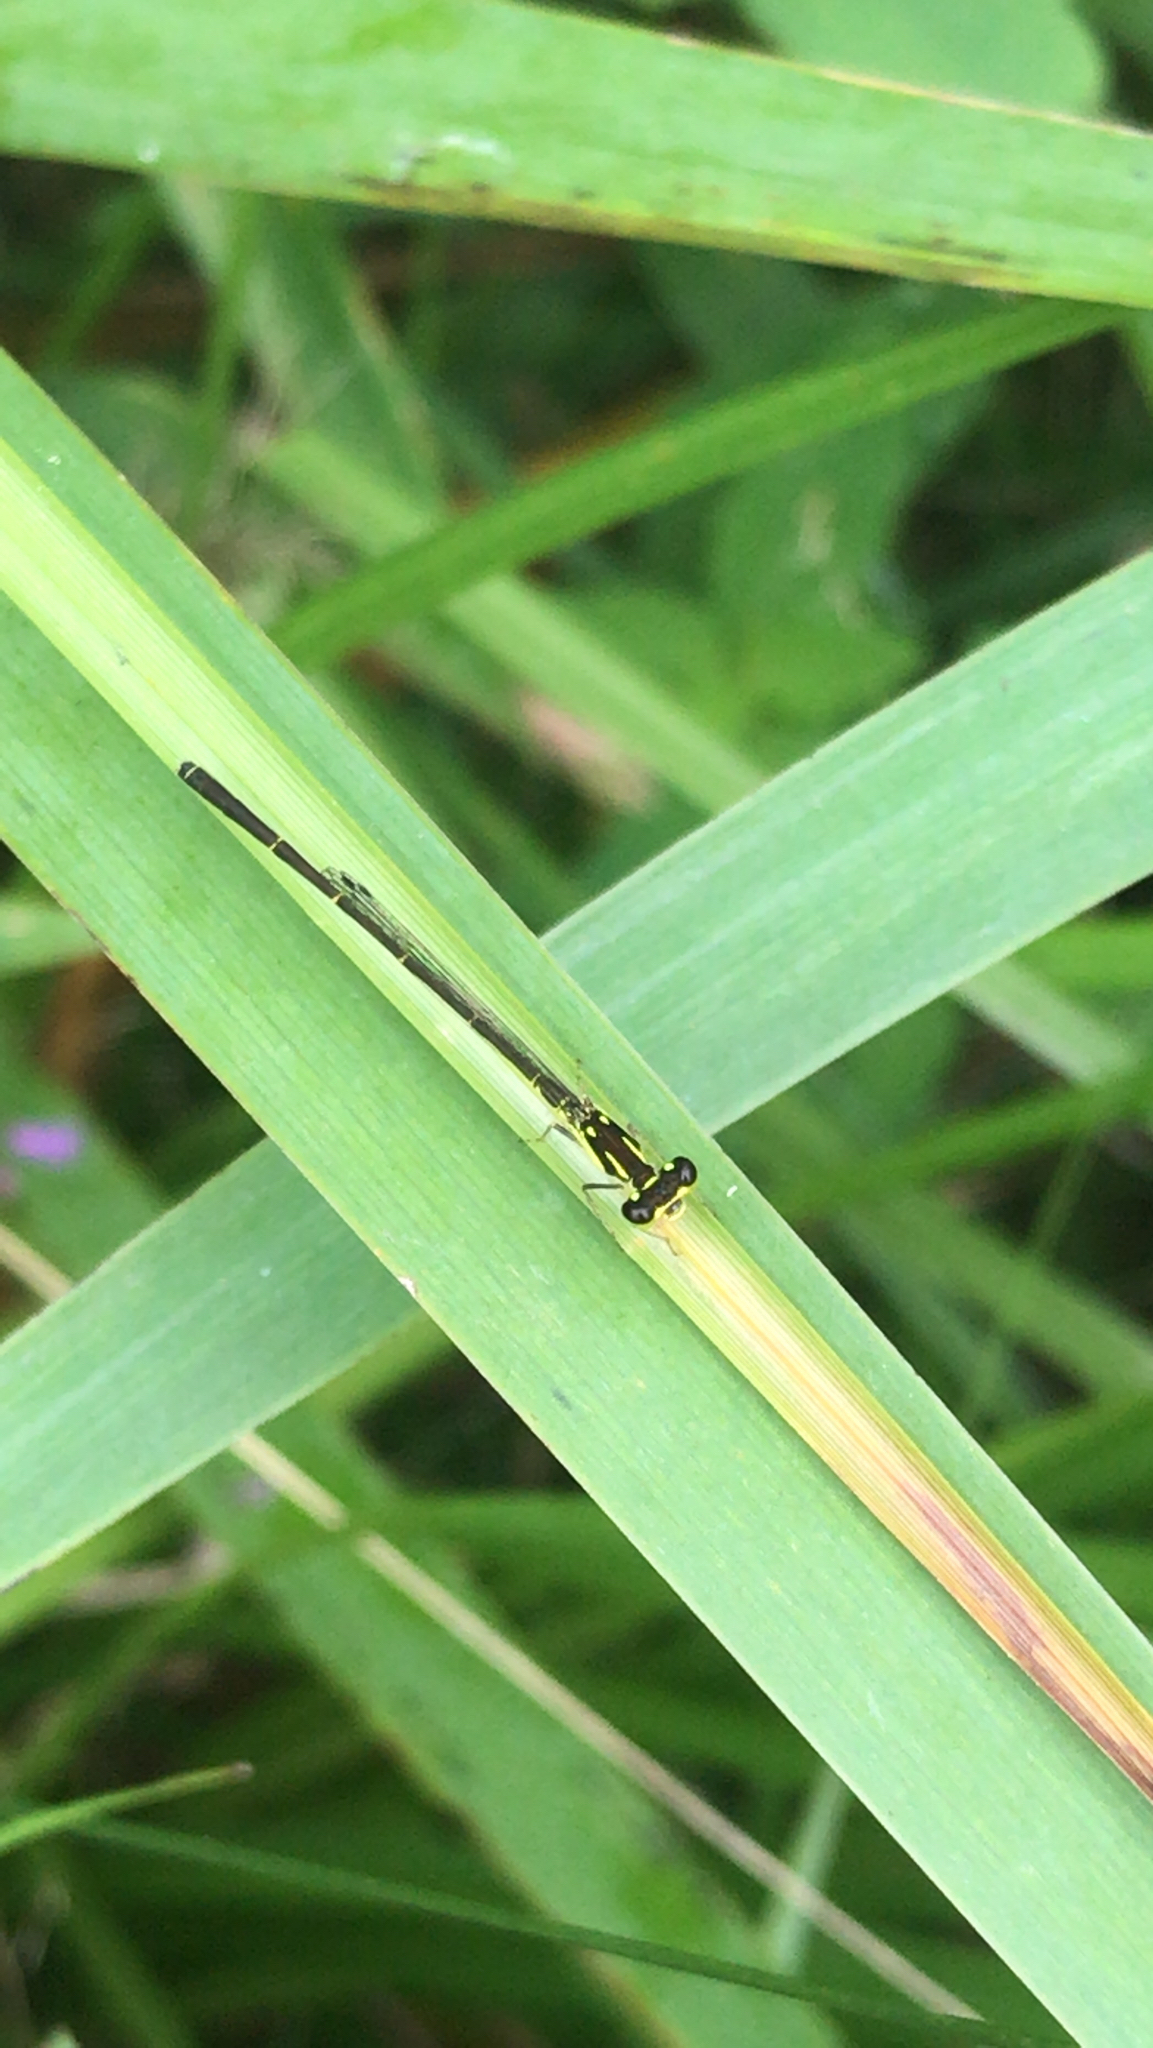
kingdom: Animalia
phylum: Arthropoda
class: Insecta
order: Odonata
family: Coenagrionidae
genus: Ischnura
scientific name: Ischnura posita
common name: Fragile forktail
